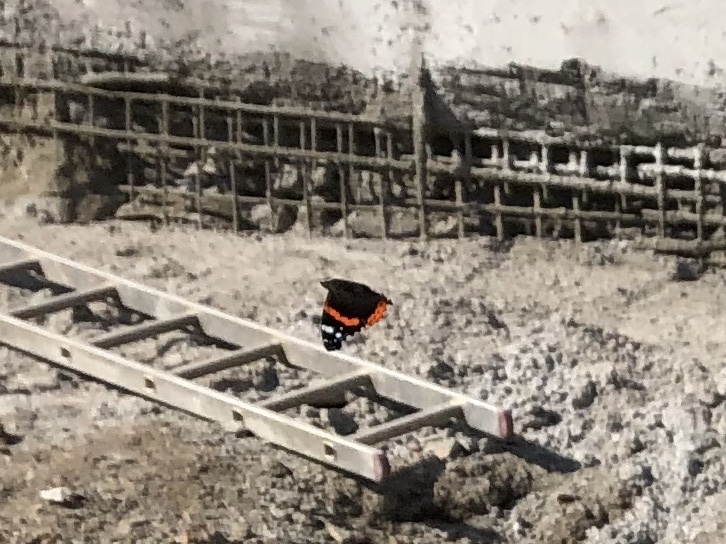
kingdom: Animalia
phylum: Arthropoda
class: Insecta
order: Lepidoptera
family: Nymphalidae
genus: Vanessa
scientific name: Vanessa atalanta
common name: Red admiral
